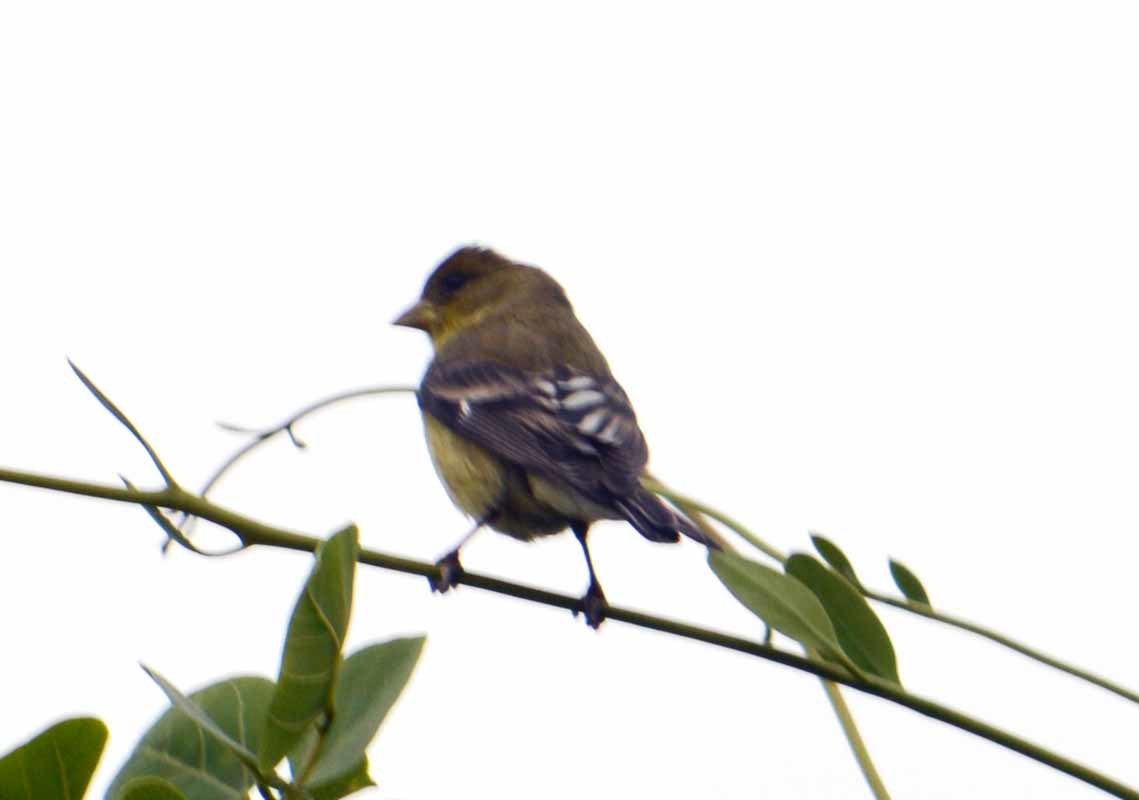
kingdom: Animalia
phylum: Chordata
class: Aves
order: Passeriformes
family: Fringillidae
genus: Spinus
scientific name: Spinus psaltria
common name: Lesser goldfinch
